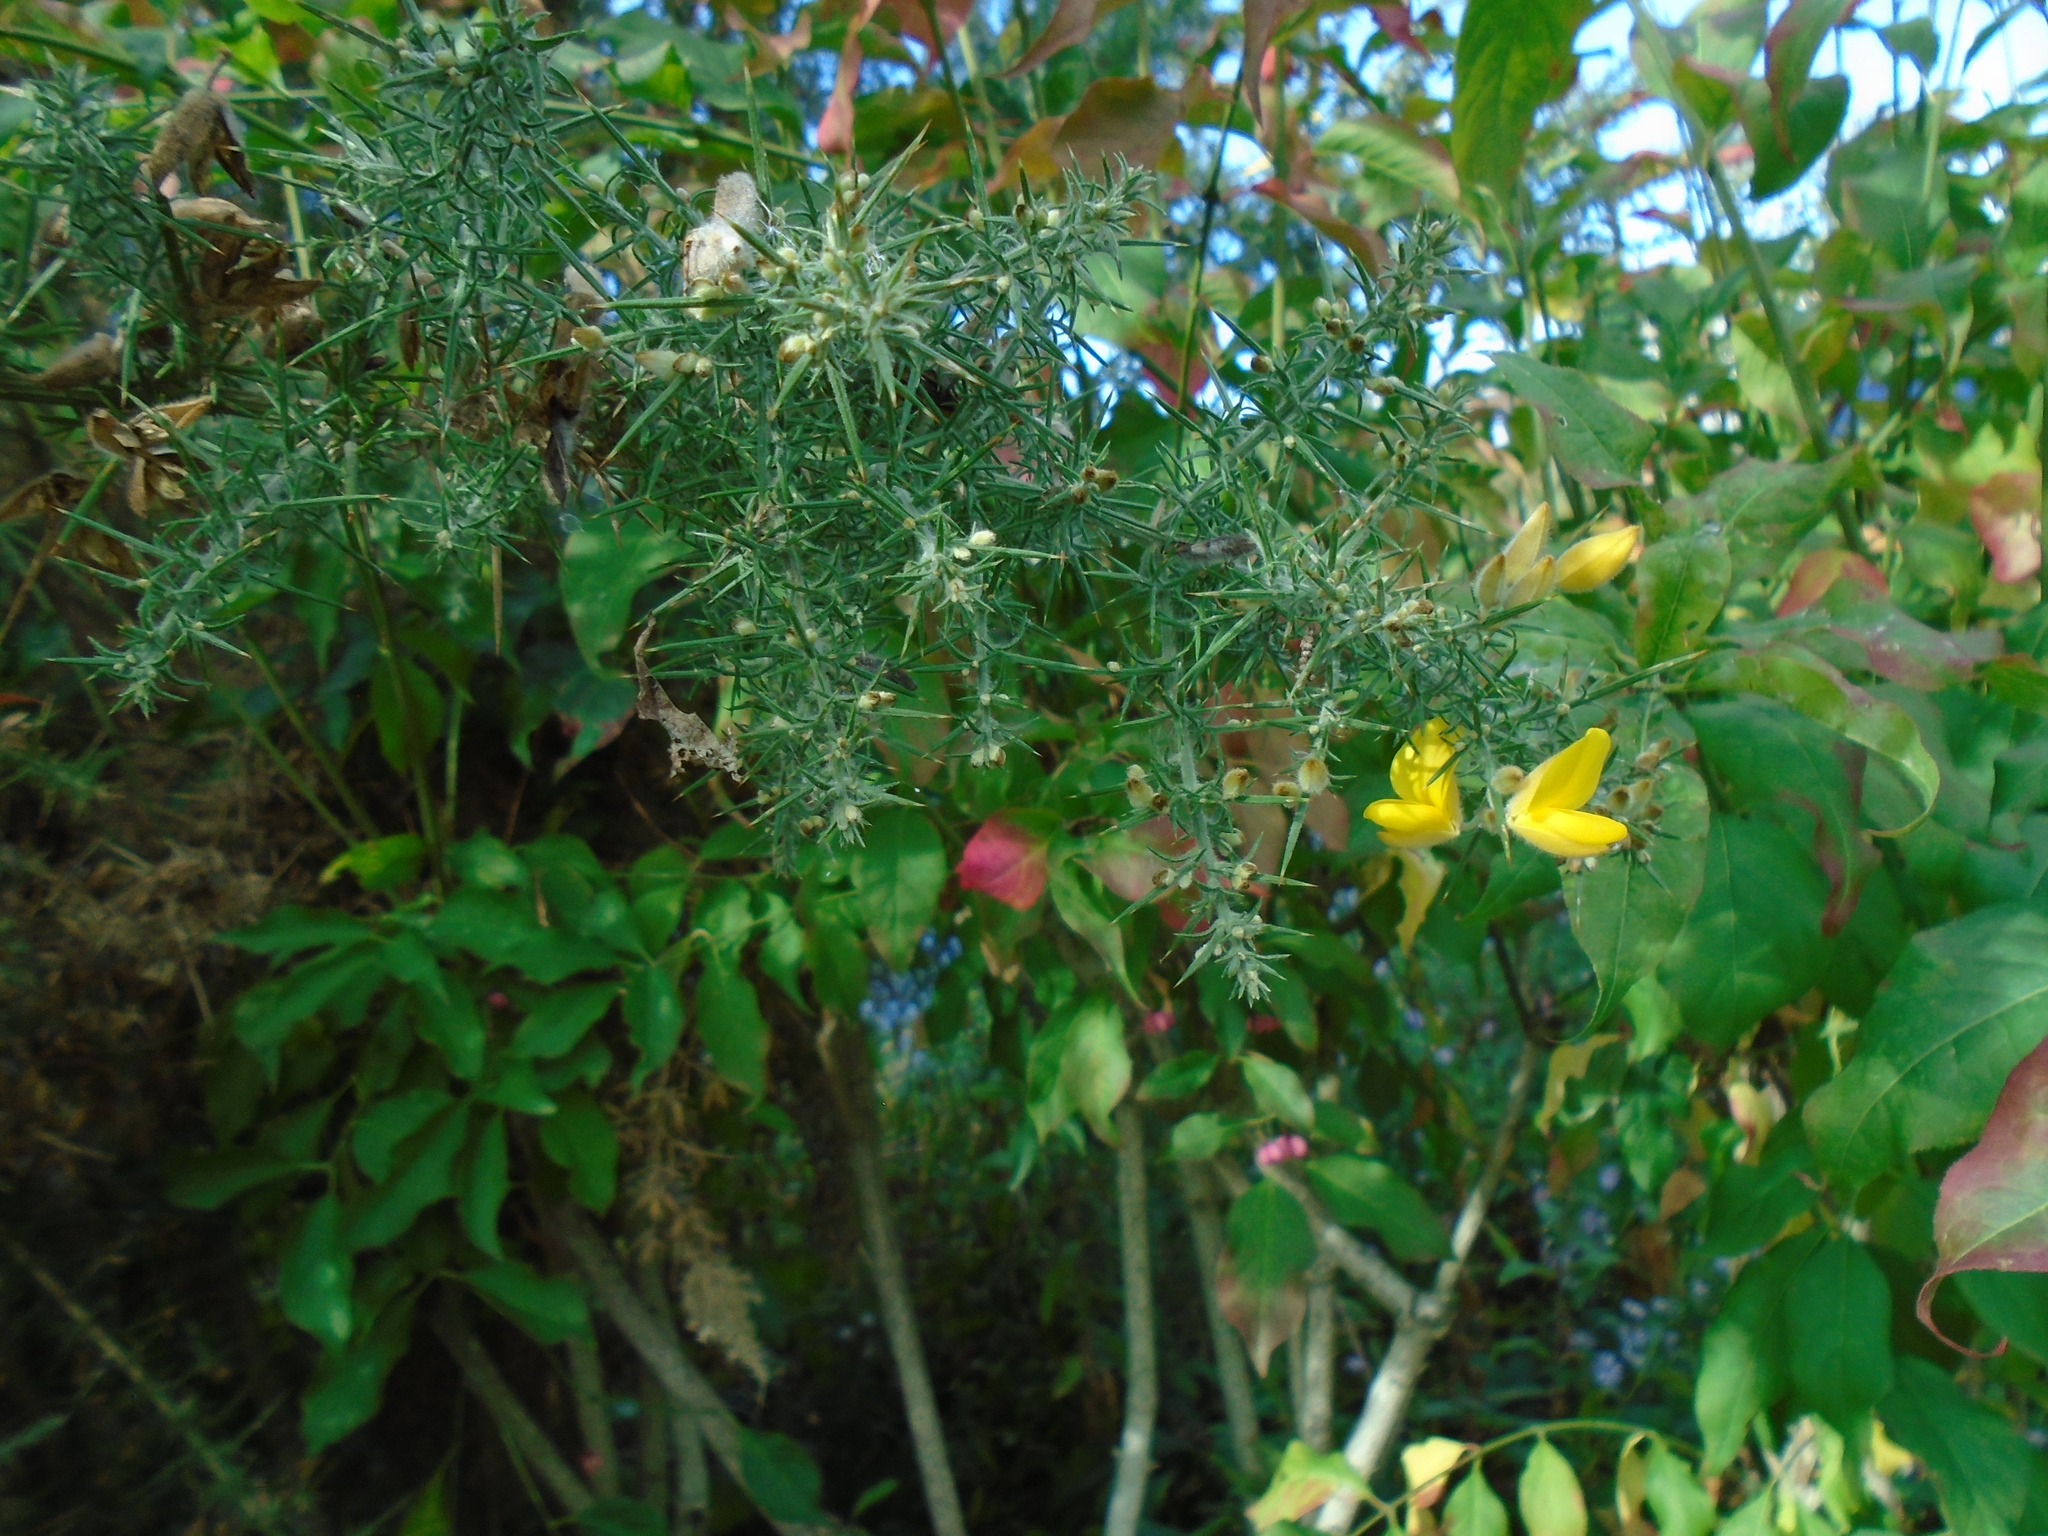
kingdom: Plantae
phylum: Tracheophyta
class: Magnoliopsida
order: Fabales
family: Fabaceae
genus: Ulex
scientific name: Ulex europaeus
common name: Common gorse
